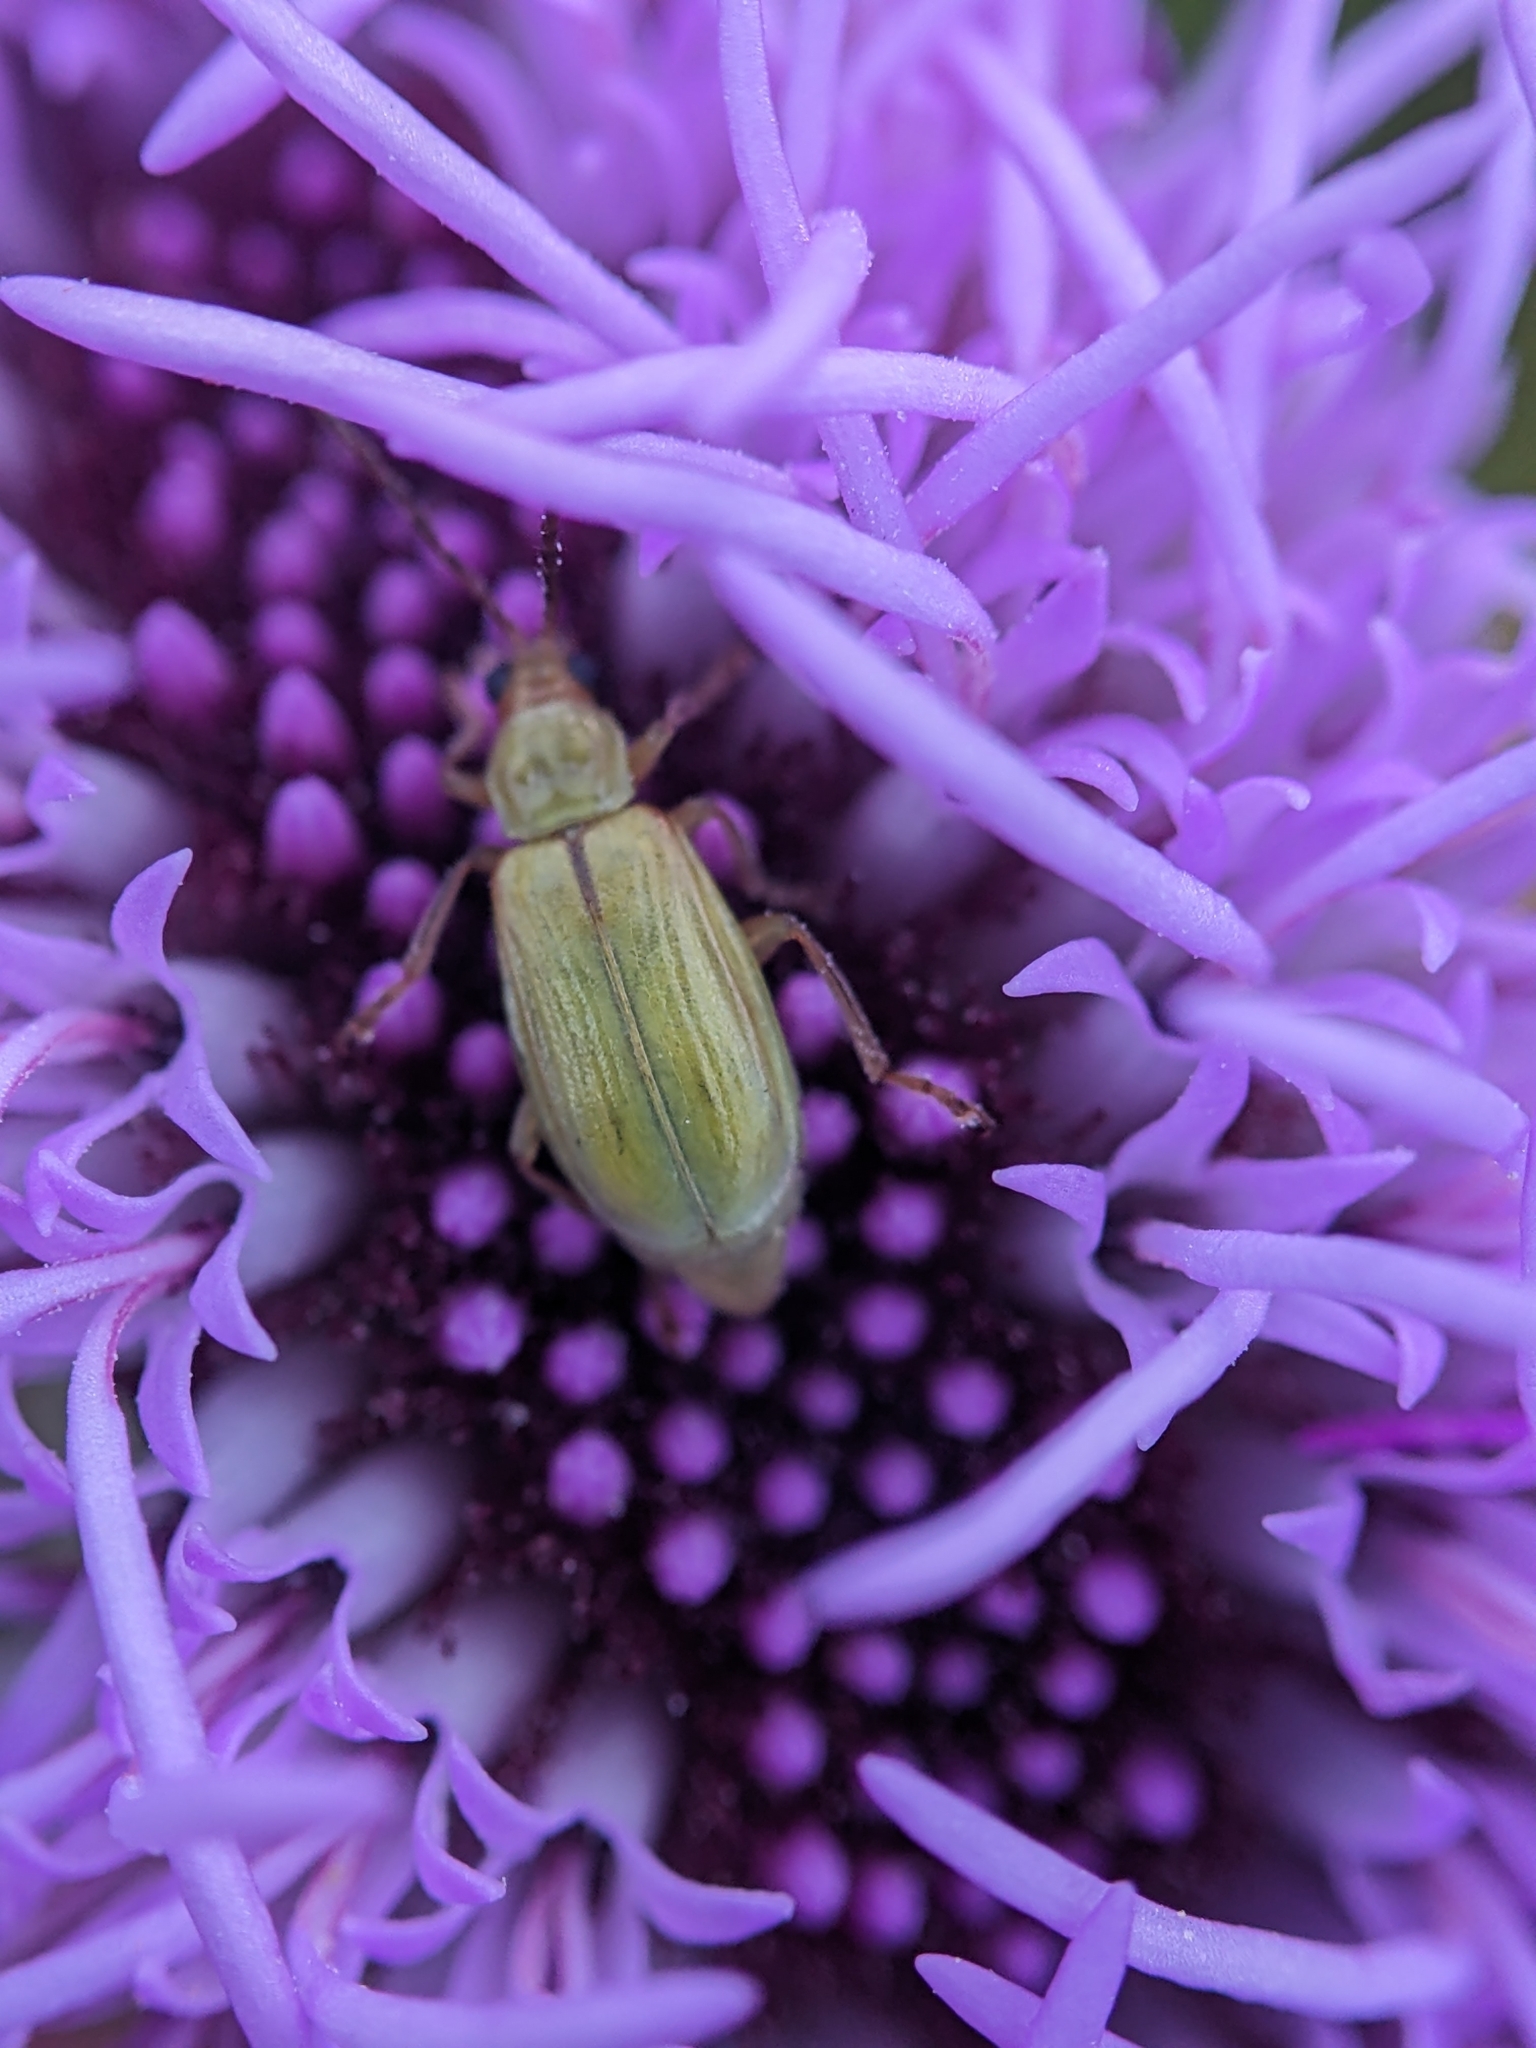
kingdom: Animalia
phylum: Arthropoda
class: Insecta
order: Coleoptera
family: Chrysomelidae
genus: Diabrotica
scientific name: Diabrotica barberi
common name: Northern corn rootworm
